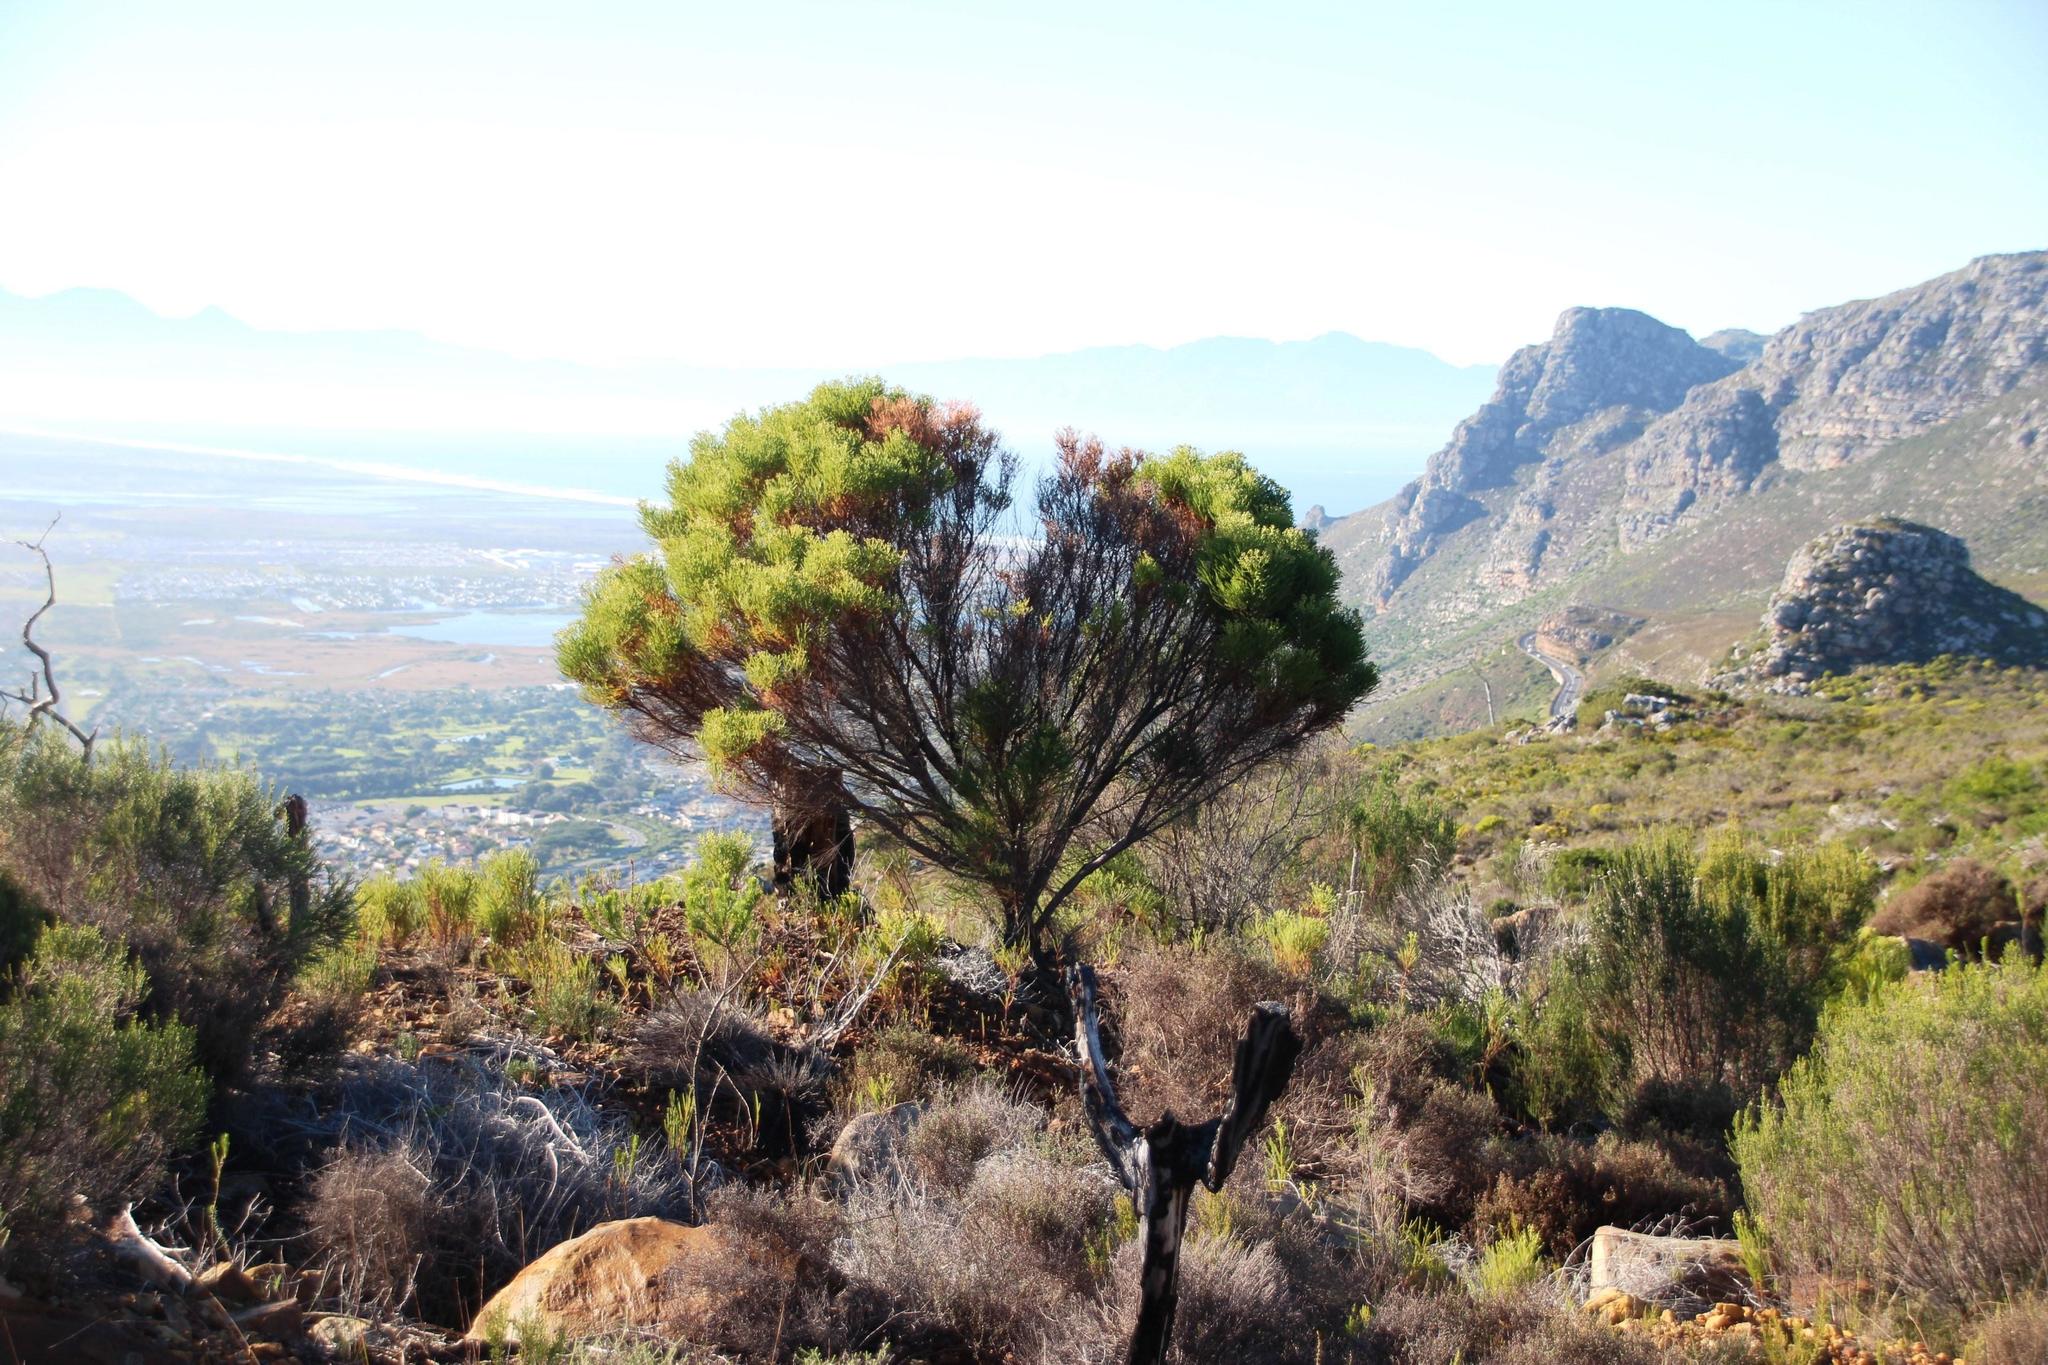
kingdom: Plantae
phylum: Tracheophyta
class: Magnoliopsida
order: Bruniales
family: Bruniaceae
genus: Berzelia
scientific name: Berzelia lanuginosa
